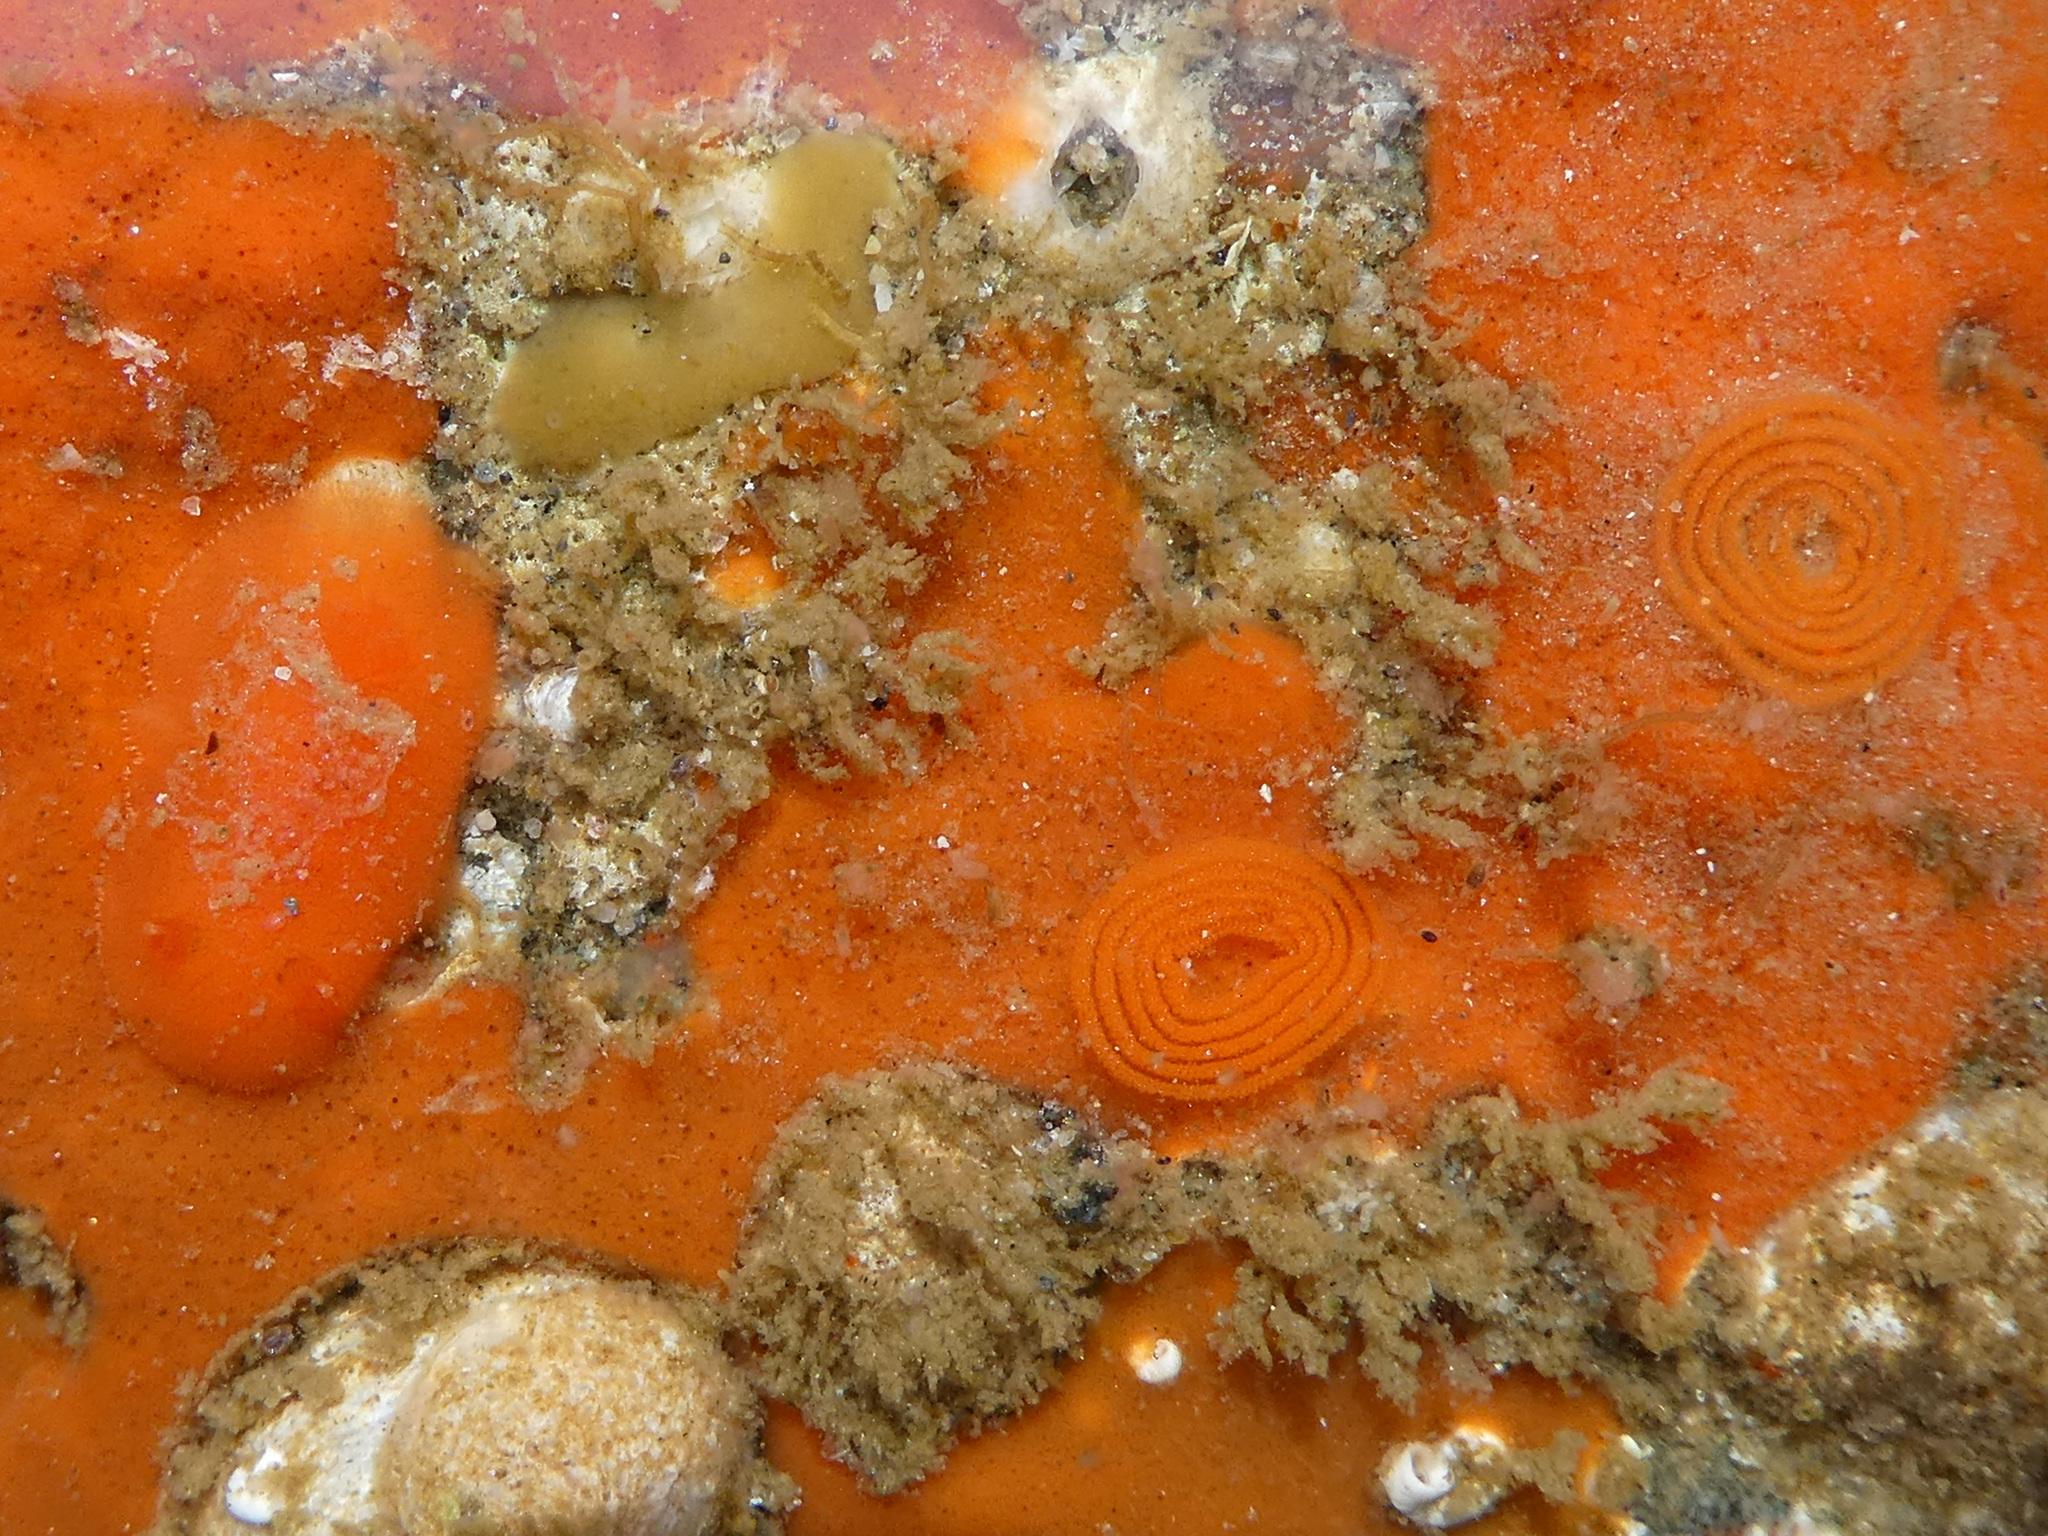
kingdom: Animalia
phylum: Mollusca
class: Gastropoda
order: Nudibranchia
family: Discodorididae
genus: Rostanga
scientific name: Rostanga pulchra
